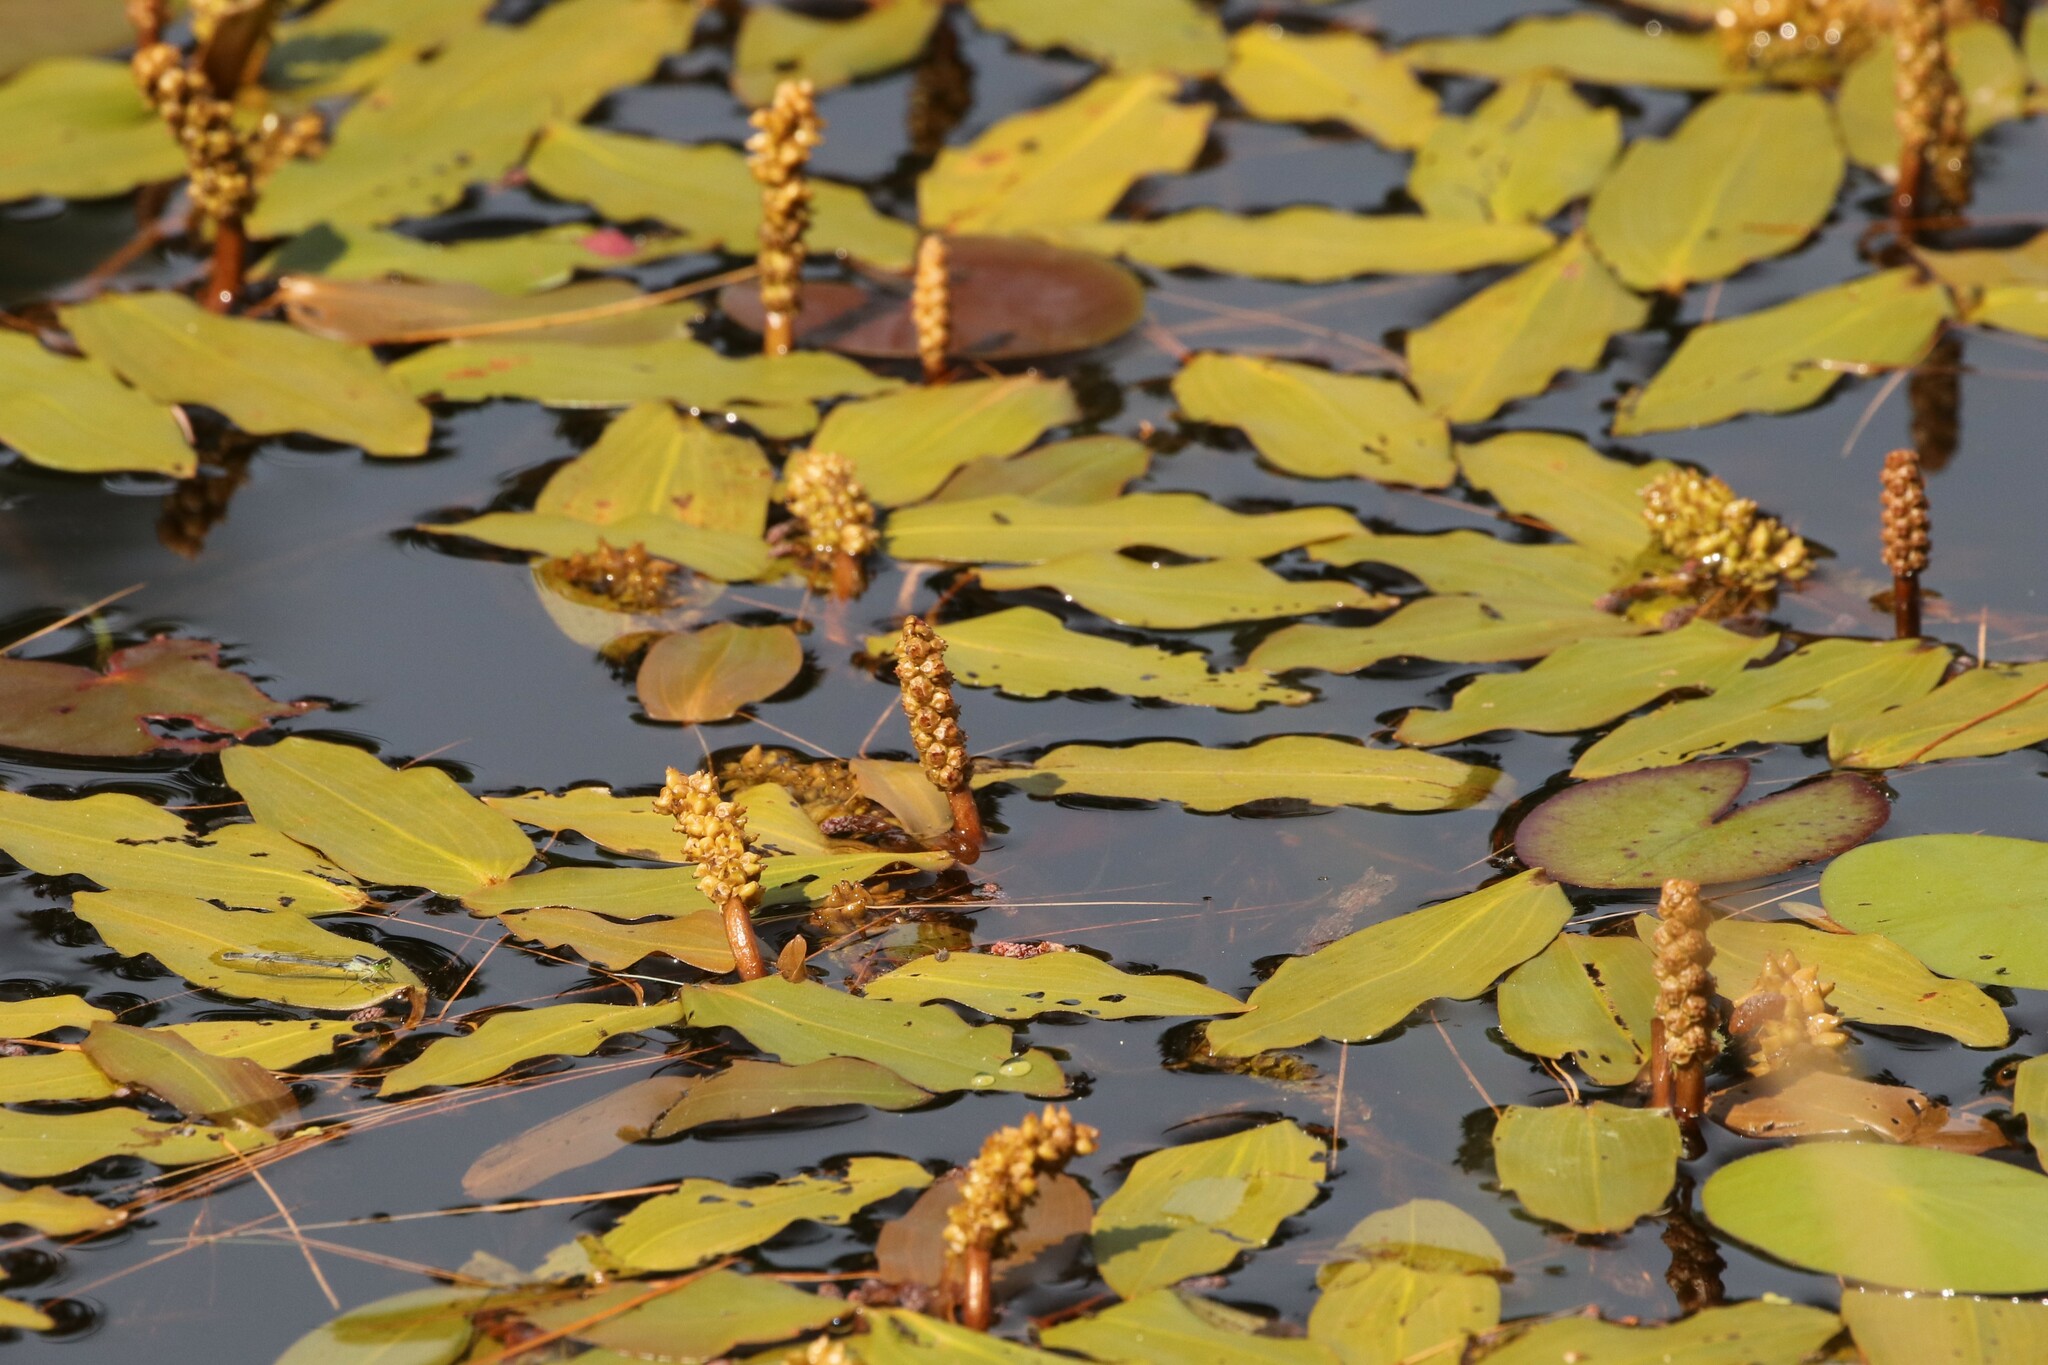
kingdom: Plantae
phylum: Tracheophyta
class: Liliopsida
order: Alismatales
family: Potamogetonaceae
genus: Potamogeton
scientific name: Potamogeton natans
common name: Broad-leaved pondweed
